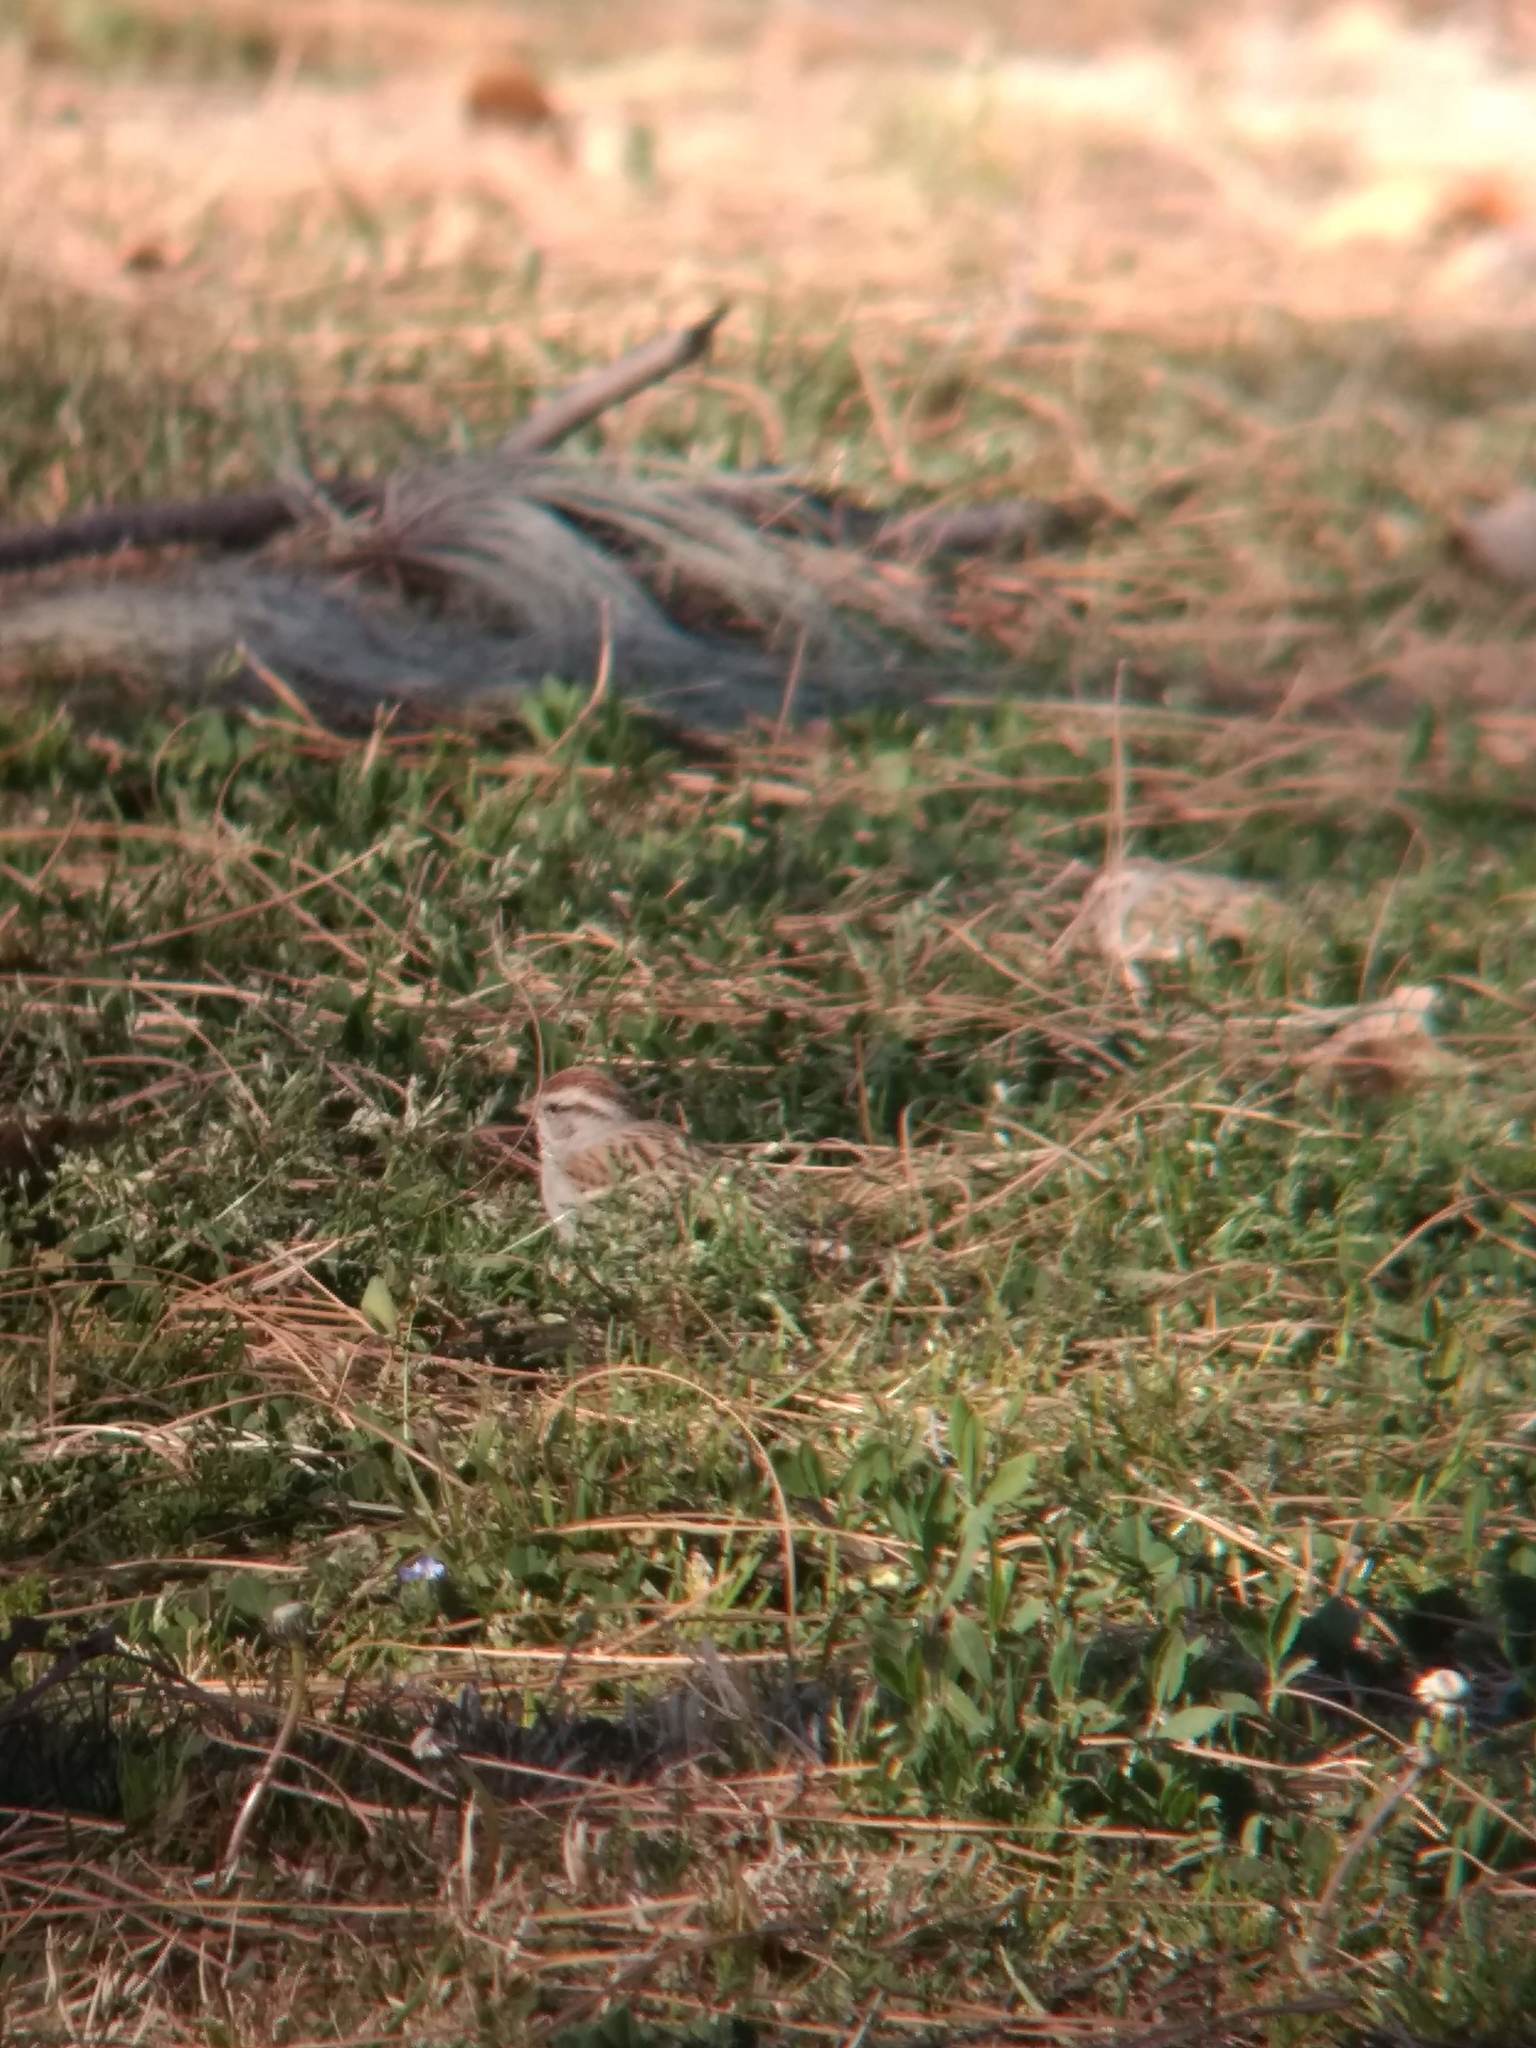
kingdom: Animalia
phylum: Chordata
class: Aves
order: Passeriformes
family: Passerellidae
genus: Spizella
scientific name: Spizella passerina
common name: Chipping sparrow
